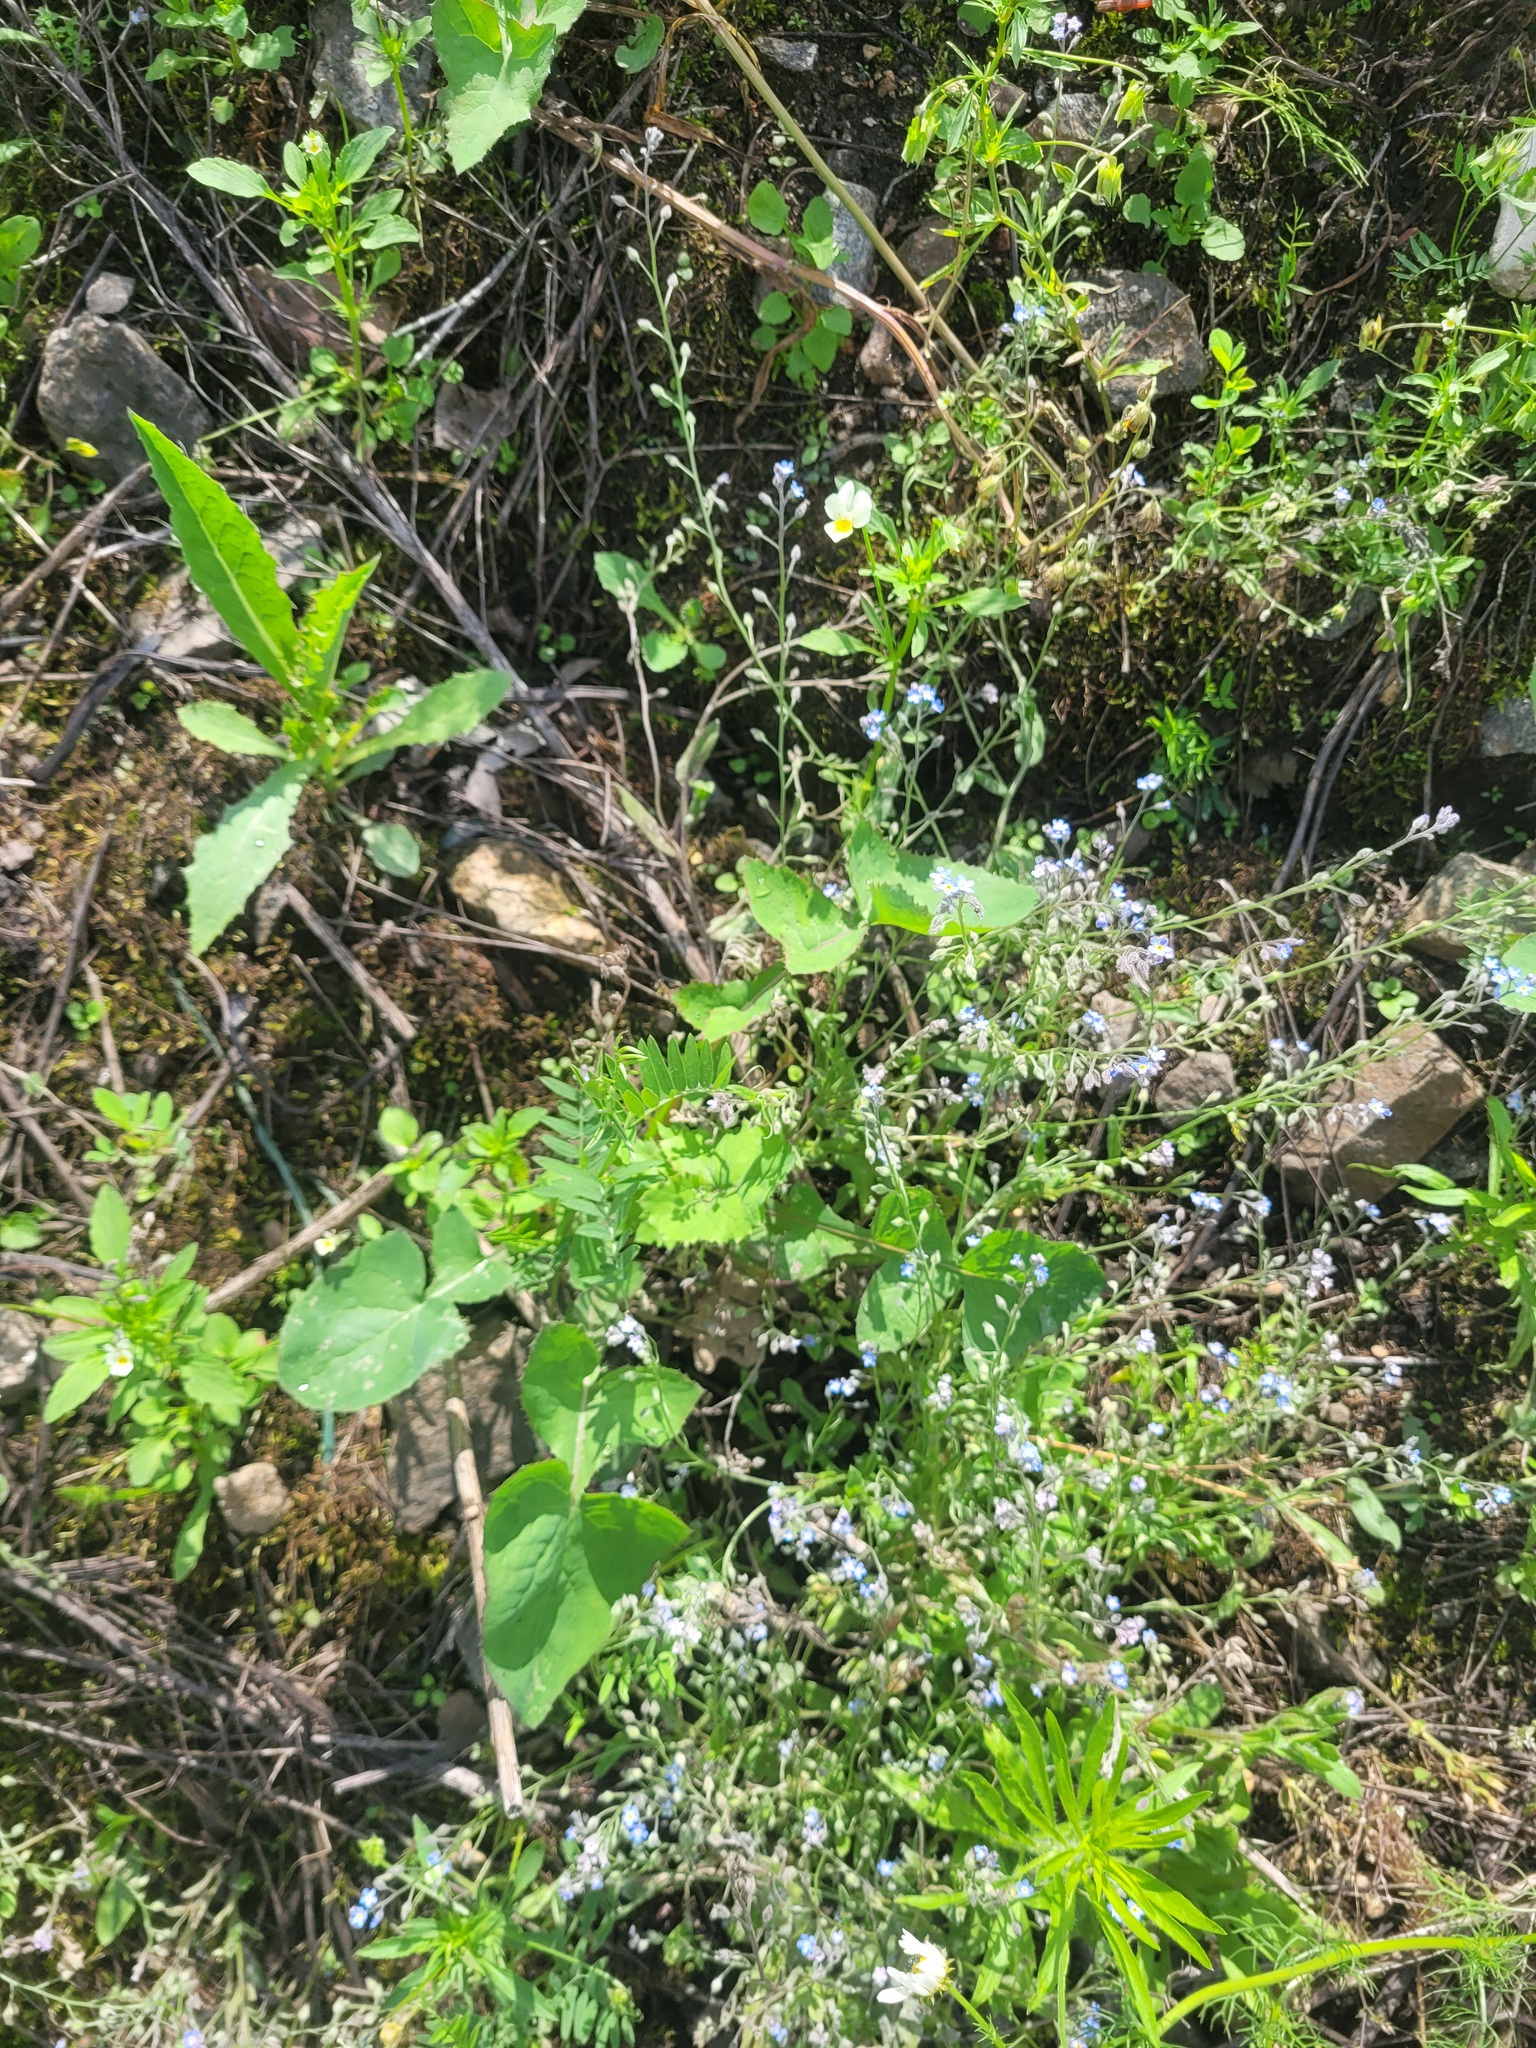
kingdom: Plantae
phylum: Tracheophyta
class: Magnoliopsida
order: Asterales
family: Asteraceae
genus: Sonchus
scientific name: Sonchus oleraceus
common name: Common sowthistle
